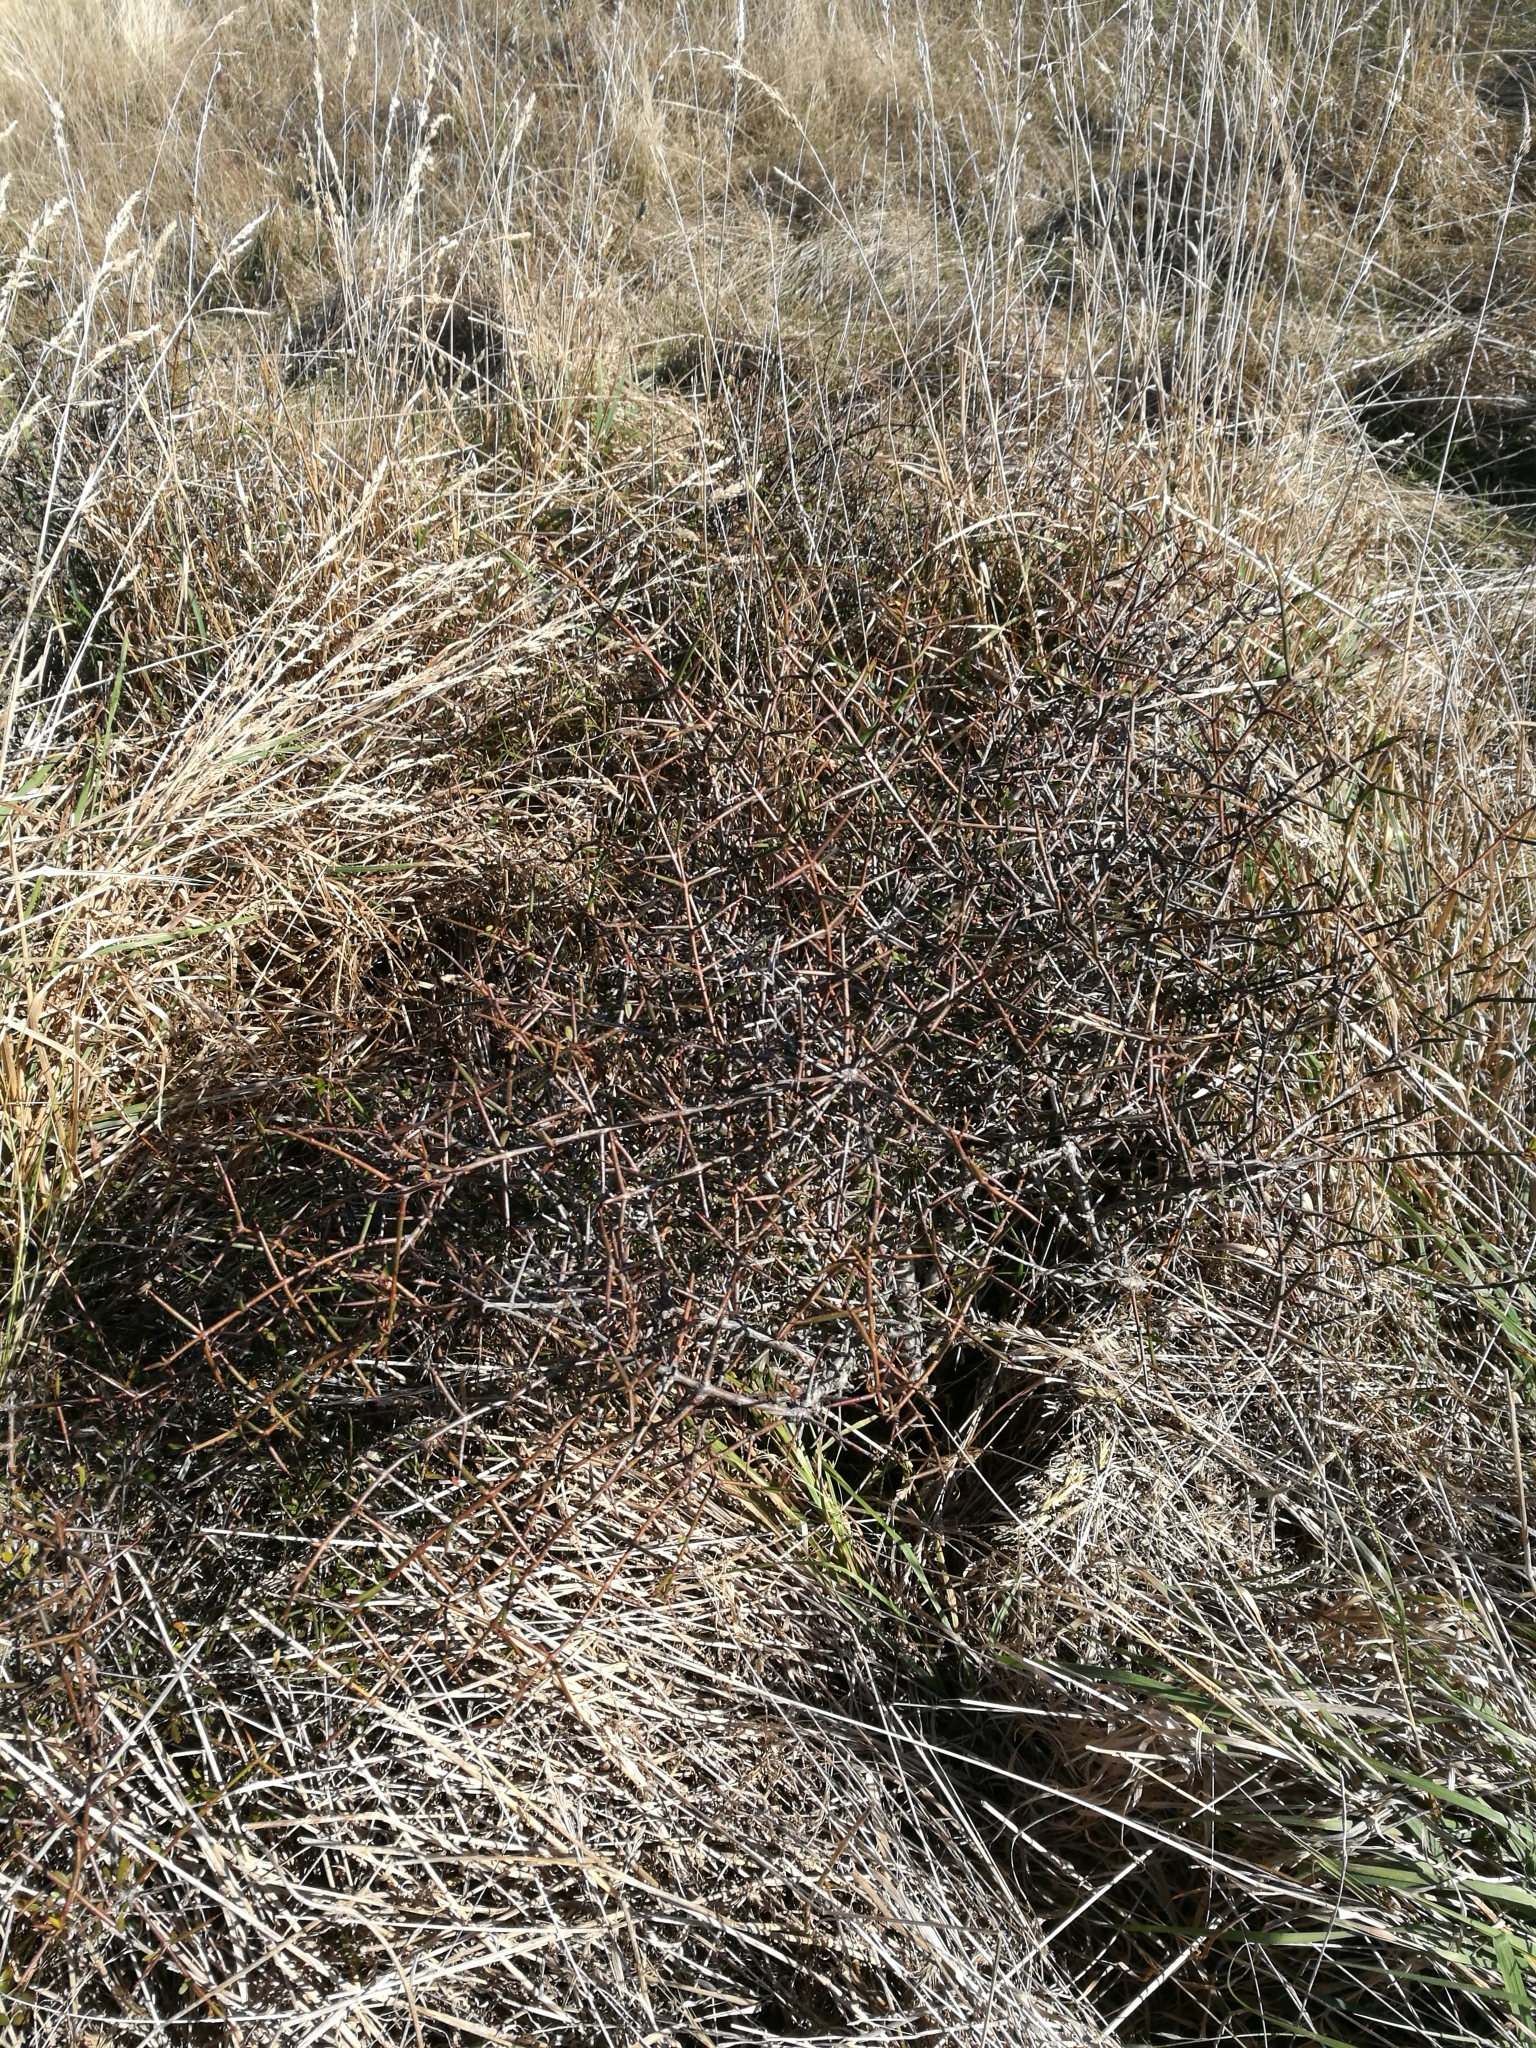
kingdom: Plantae
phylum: Tracheophyta
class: Magnoliopsida
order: Rosales
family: Rhamnaceae
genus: Discaria
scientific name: Discaria toumatou
